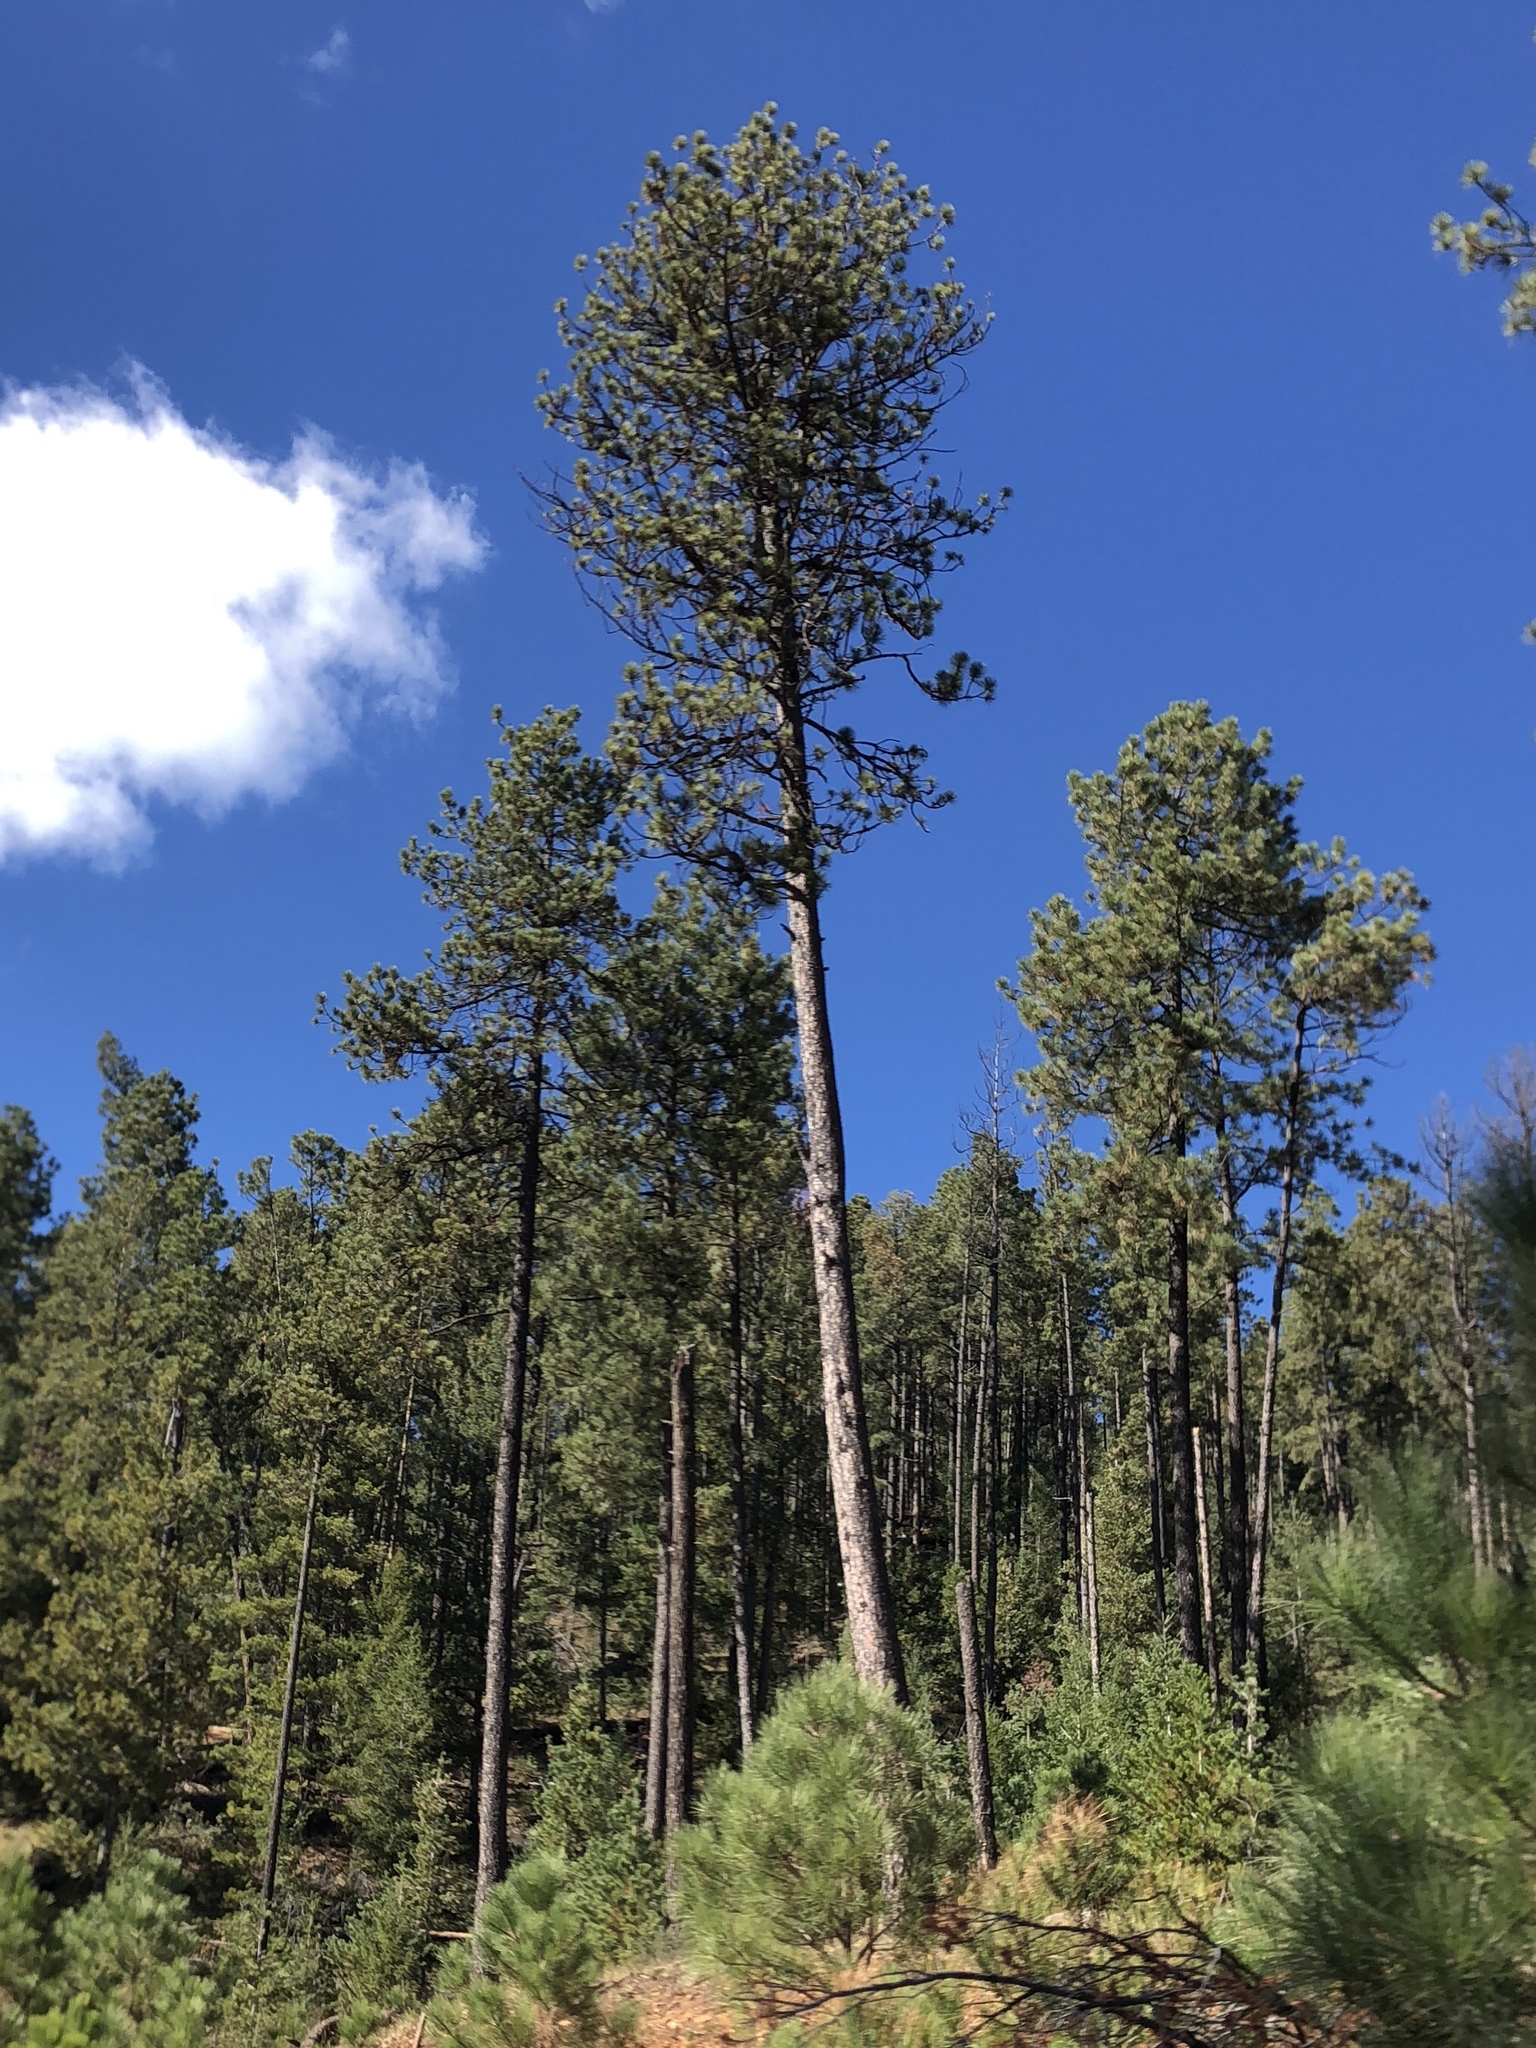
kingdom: Plantae
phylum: Tracheophyta
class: Pinopsida
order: Pinales
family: Pinaceae
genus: Pinus
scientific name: Pinus ponderosa
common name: Western yellow-pine
